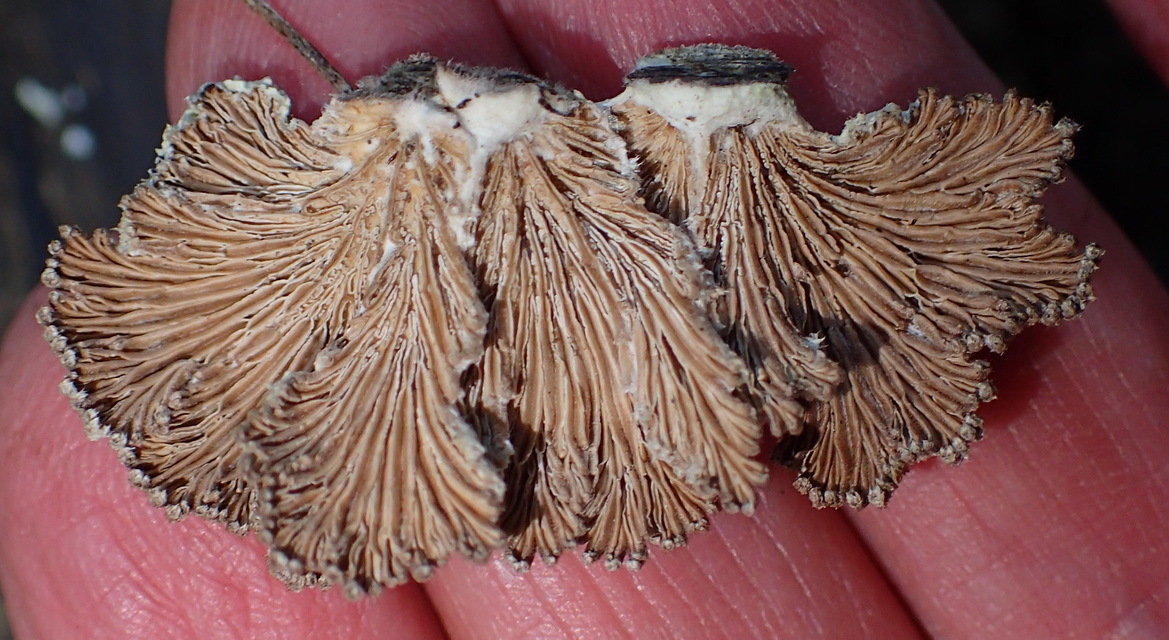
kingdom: Fungi
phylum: Basidiomycota
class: Agaricomycetes
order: Agaricales
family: Schizophyllaceae
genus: Schizophyllum
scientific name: Schizophyllum commune
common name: Common porecrust
